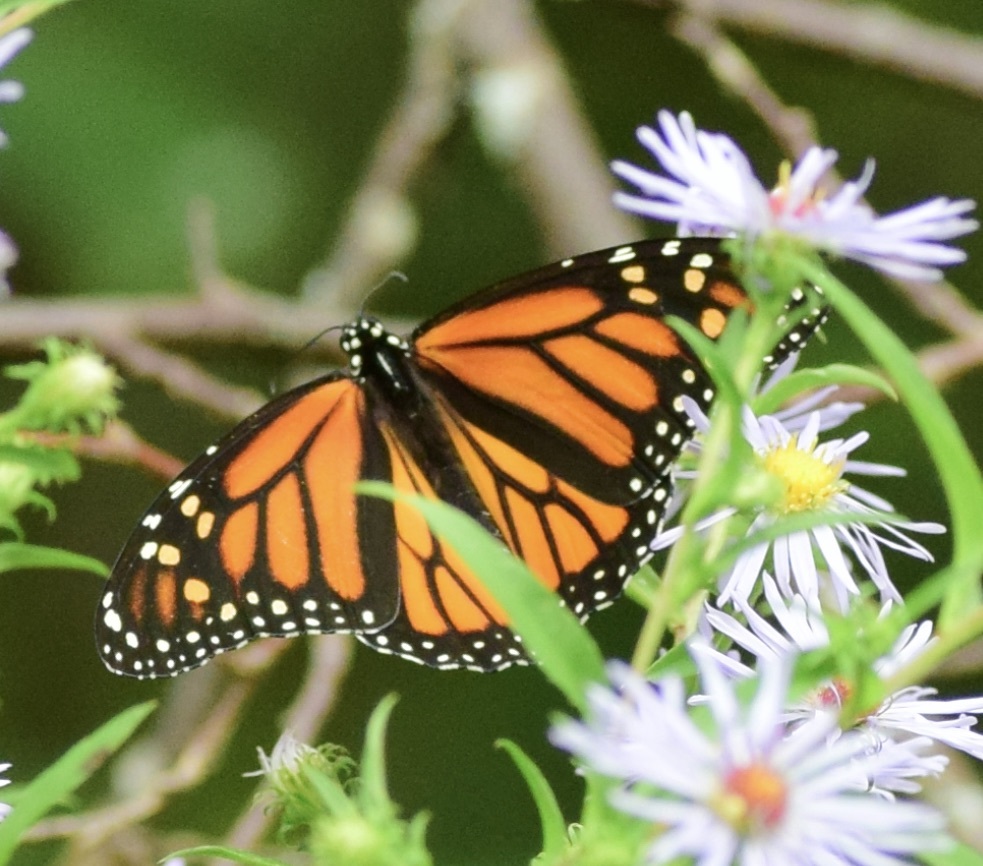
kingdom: Animalia
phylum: Arthropoda
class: Insecta
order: Lepidoptera
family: Nymphalidae
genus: Danaus
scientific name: Danaus plexippus
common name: Monarch
